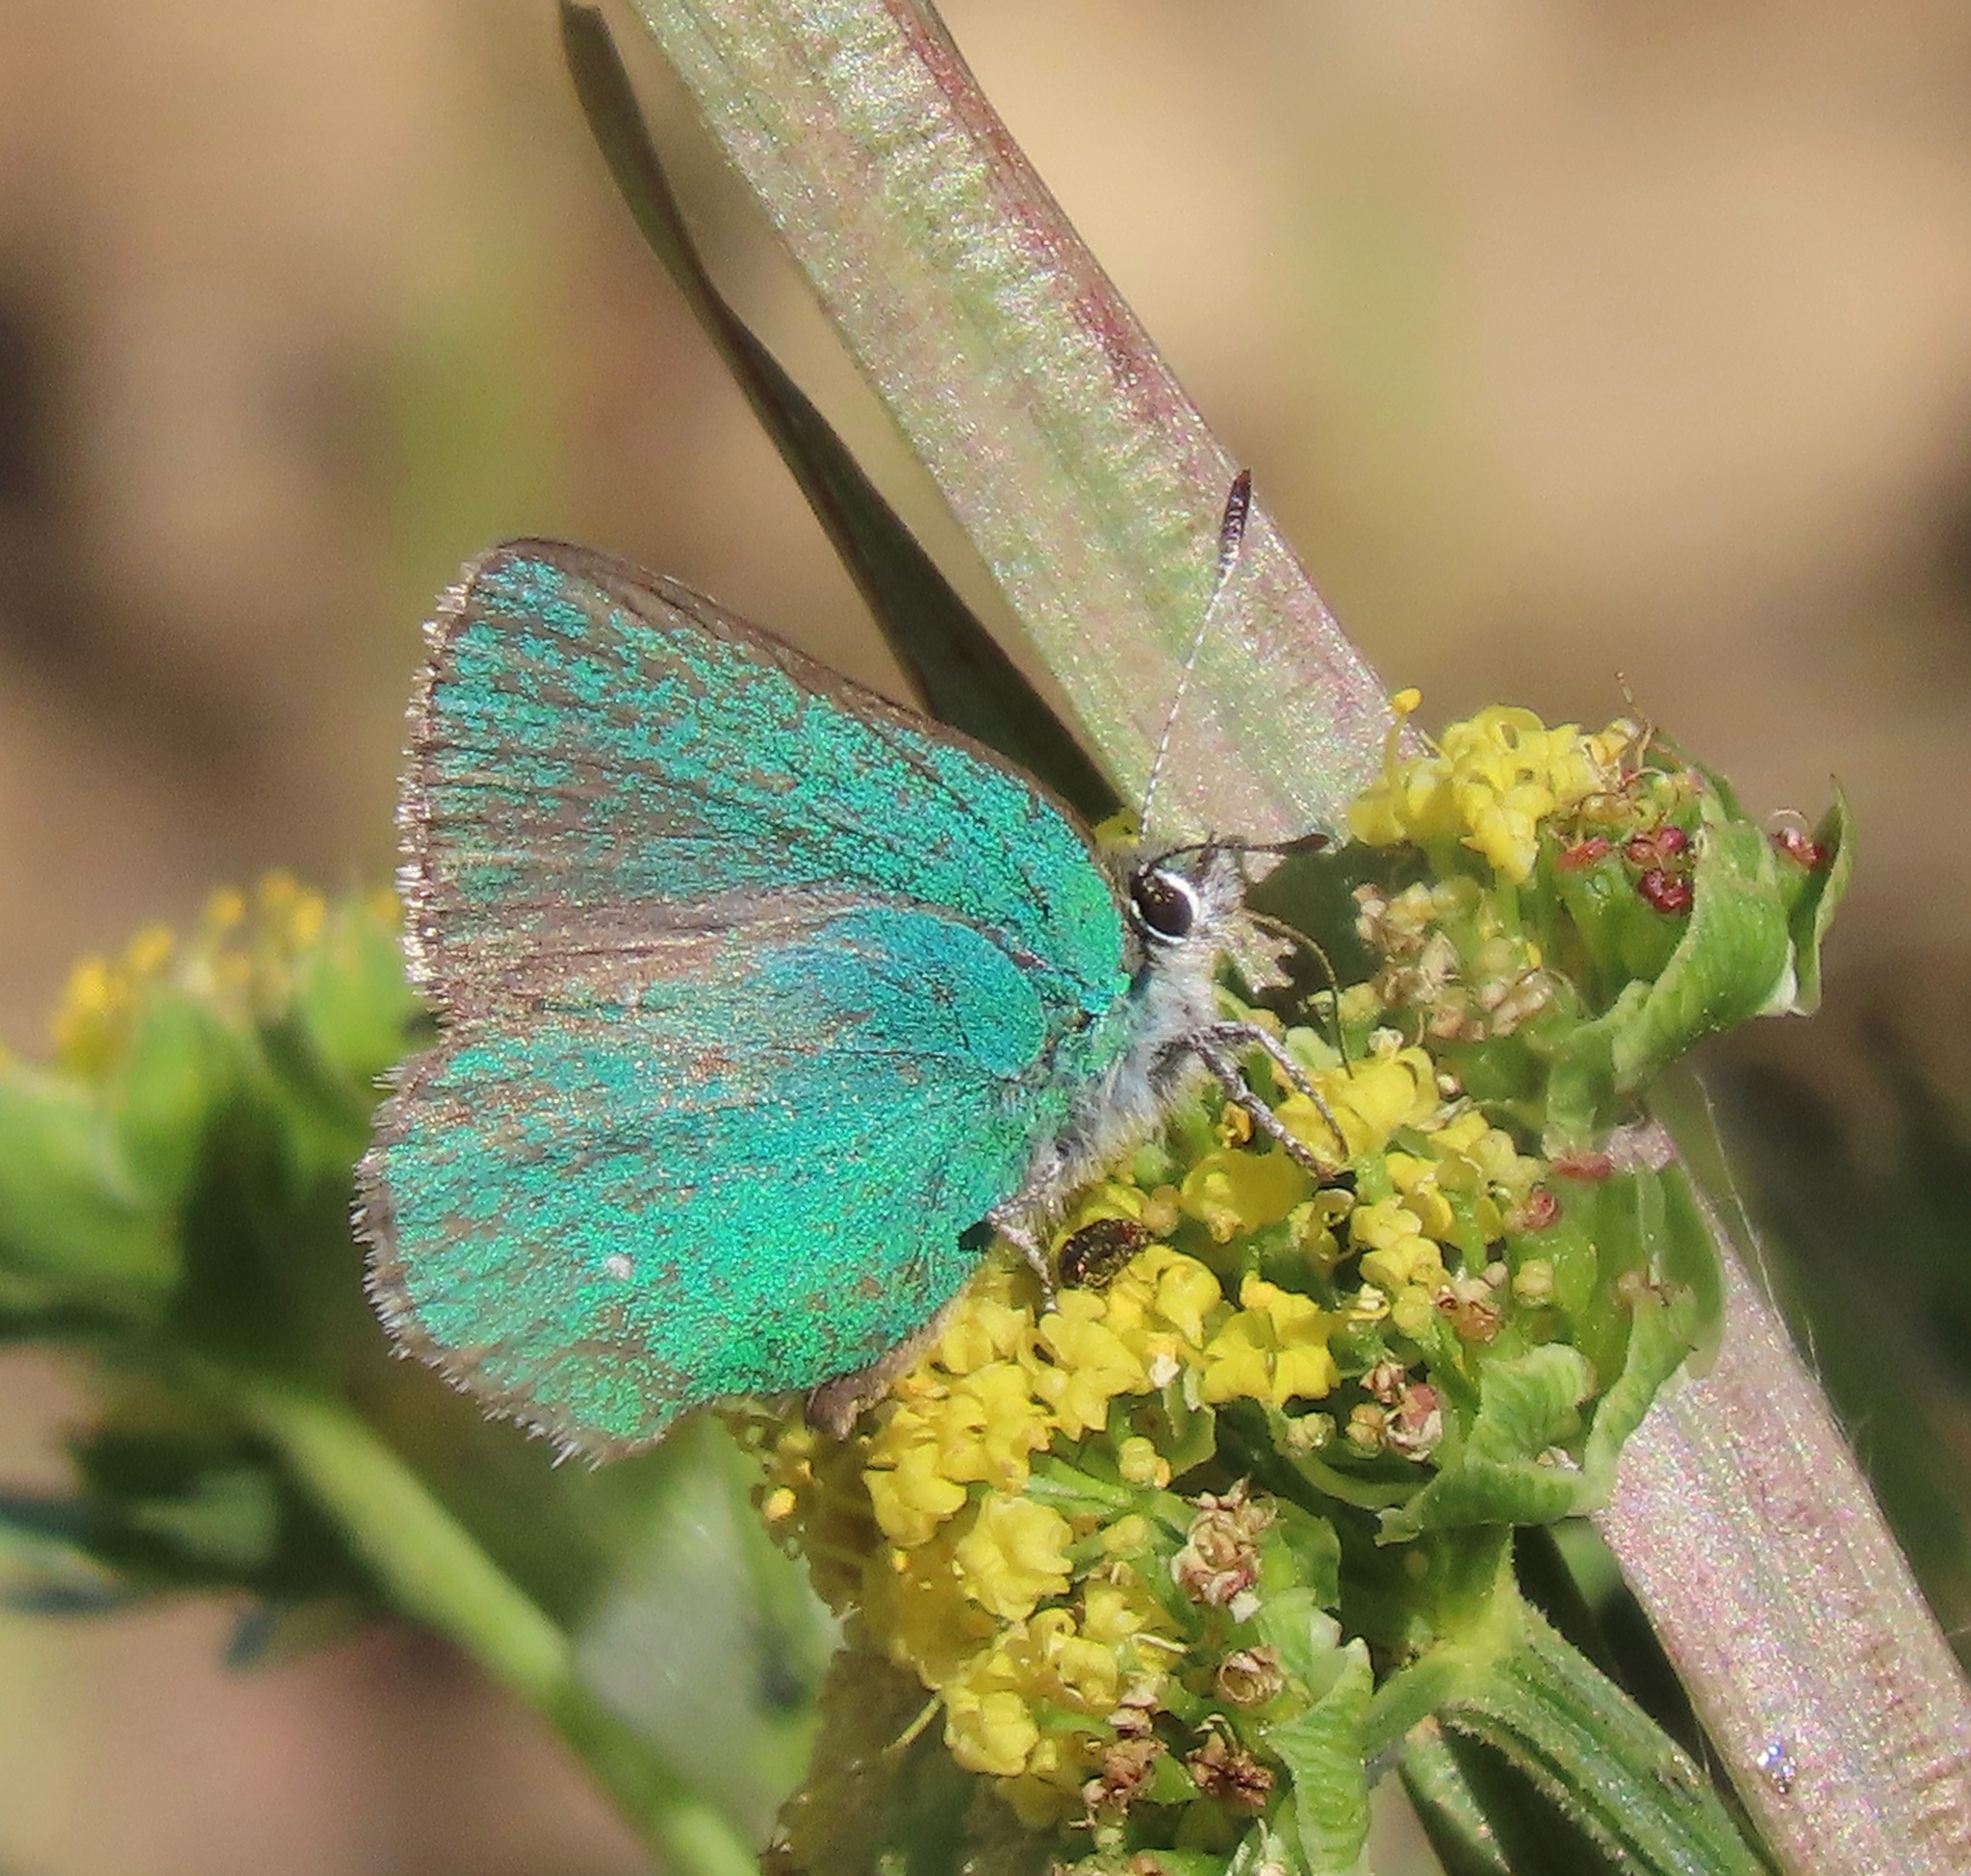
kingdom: Animalia
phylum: Arthropoda
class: Insecta
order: Lepidoptera
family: Lycaenidae
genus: Callophrys
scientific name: Callophrys viridis
